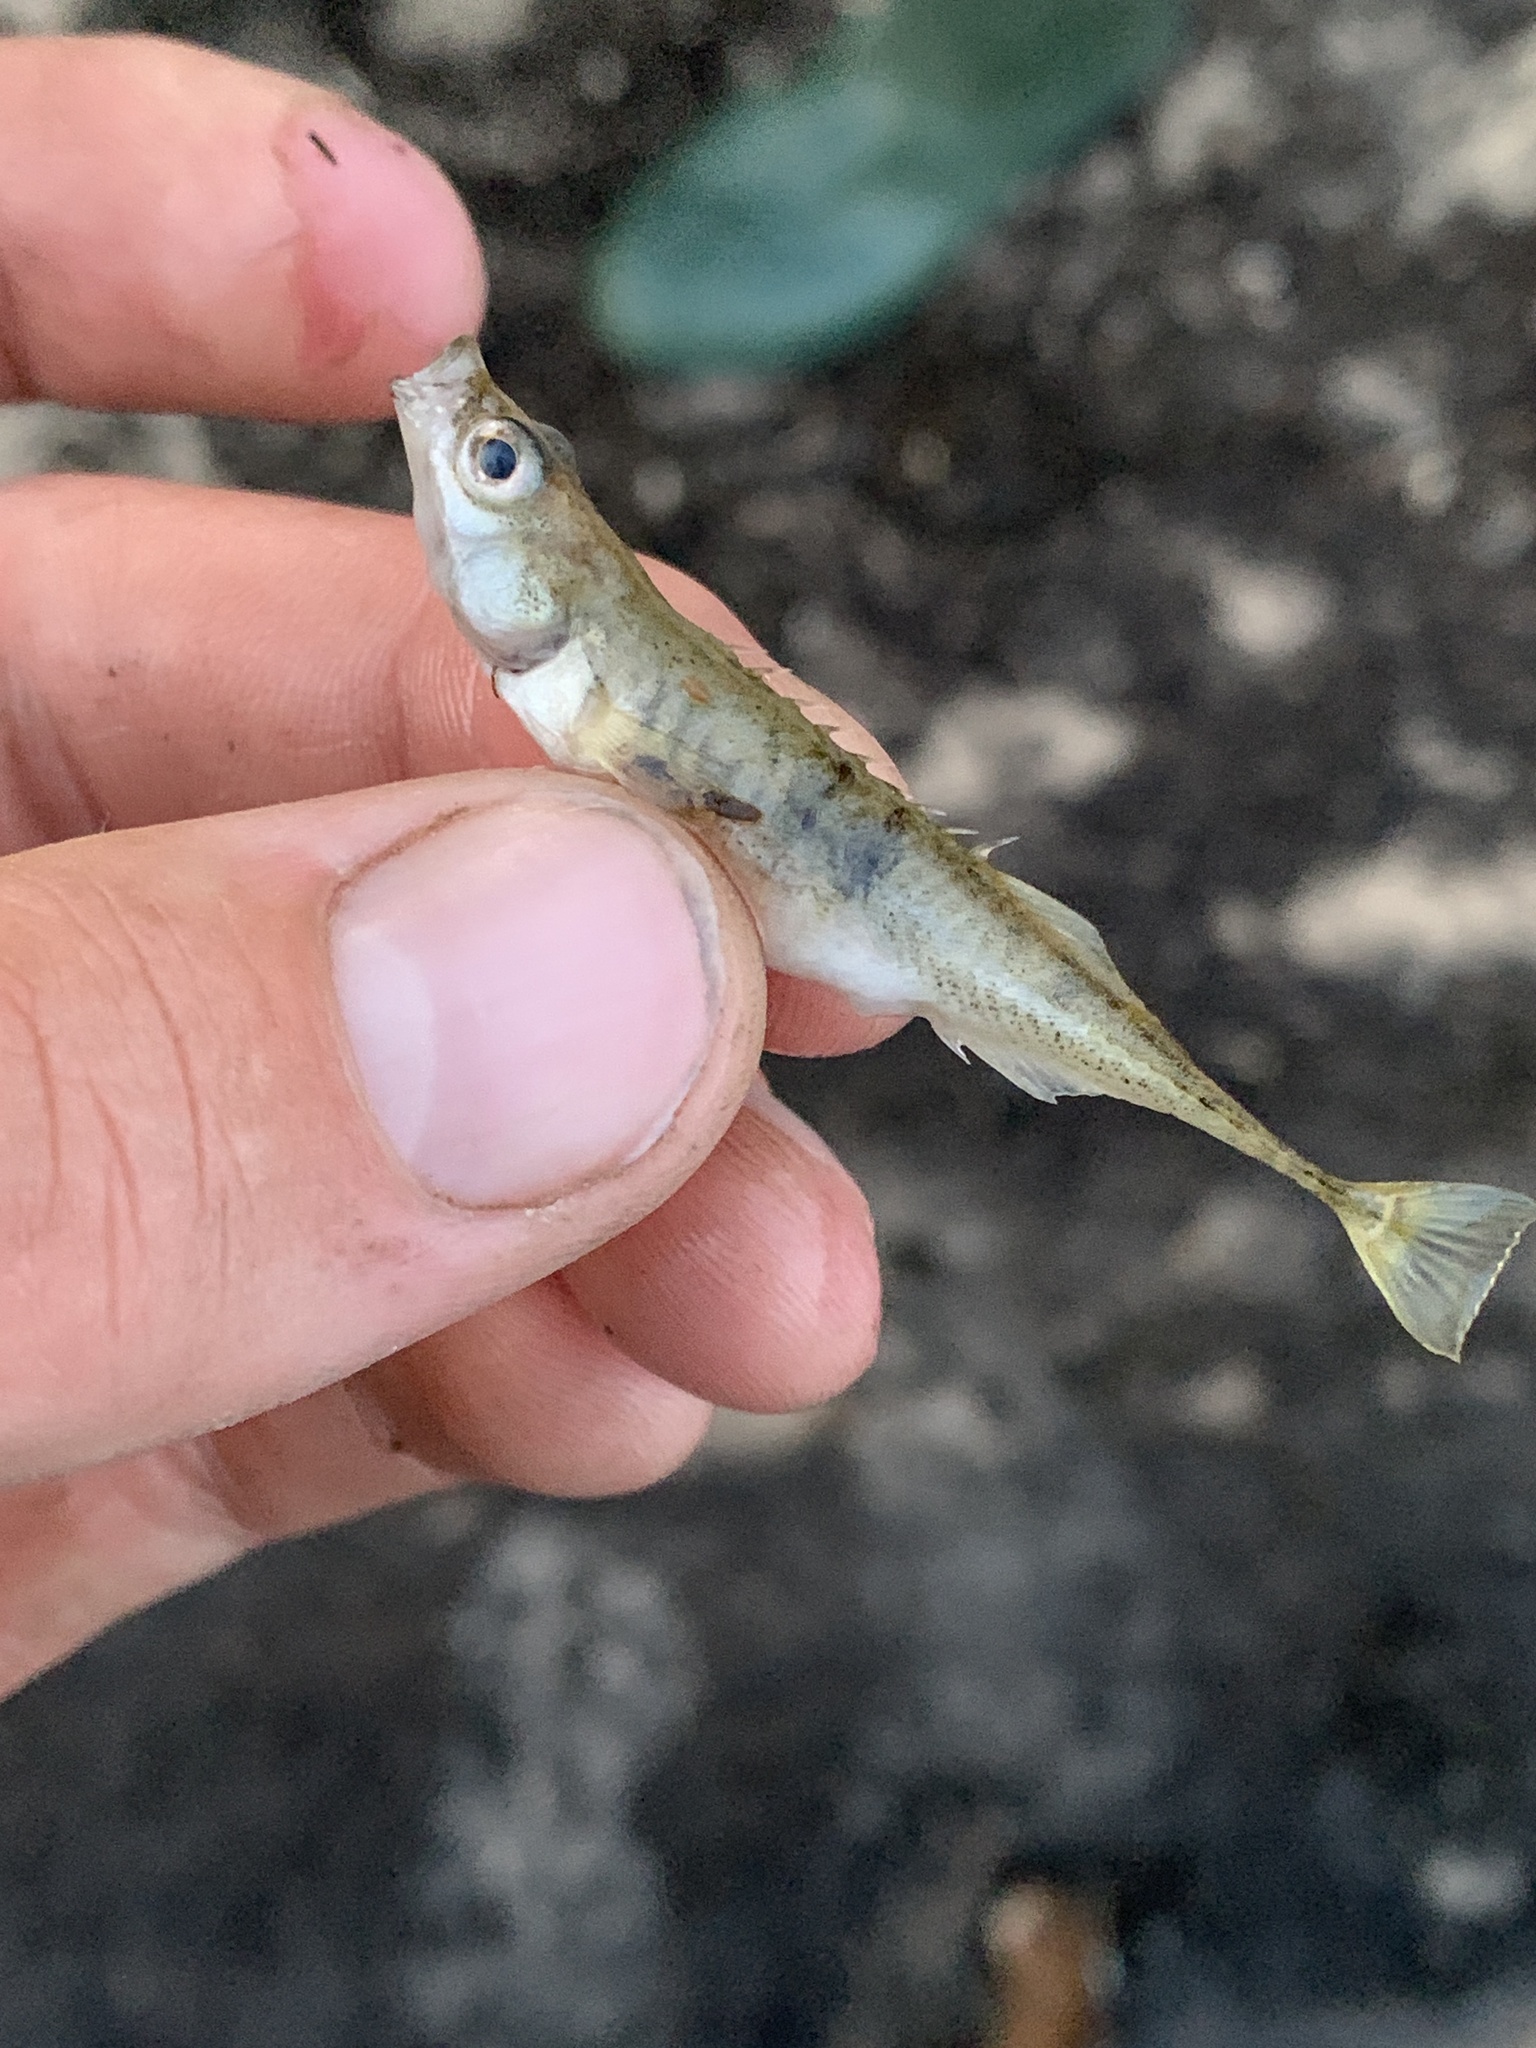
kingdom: Animalia
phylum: Chordata
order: Gasterosteiformes
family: Gasterosteidae
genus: Pungitius
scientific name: Pungitius pungitius
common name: Nine-spined stickleback
